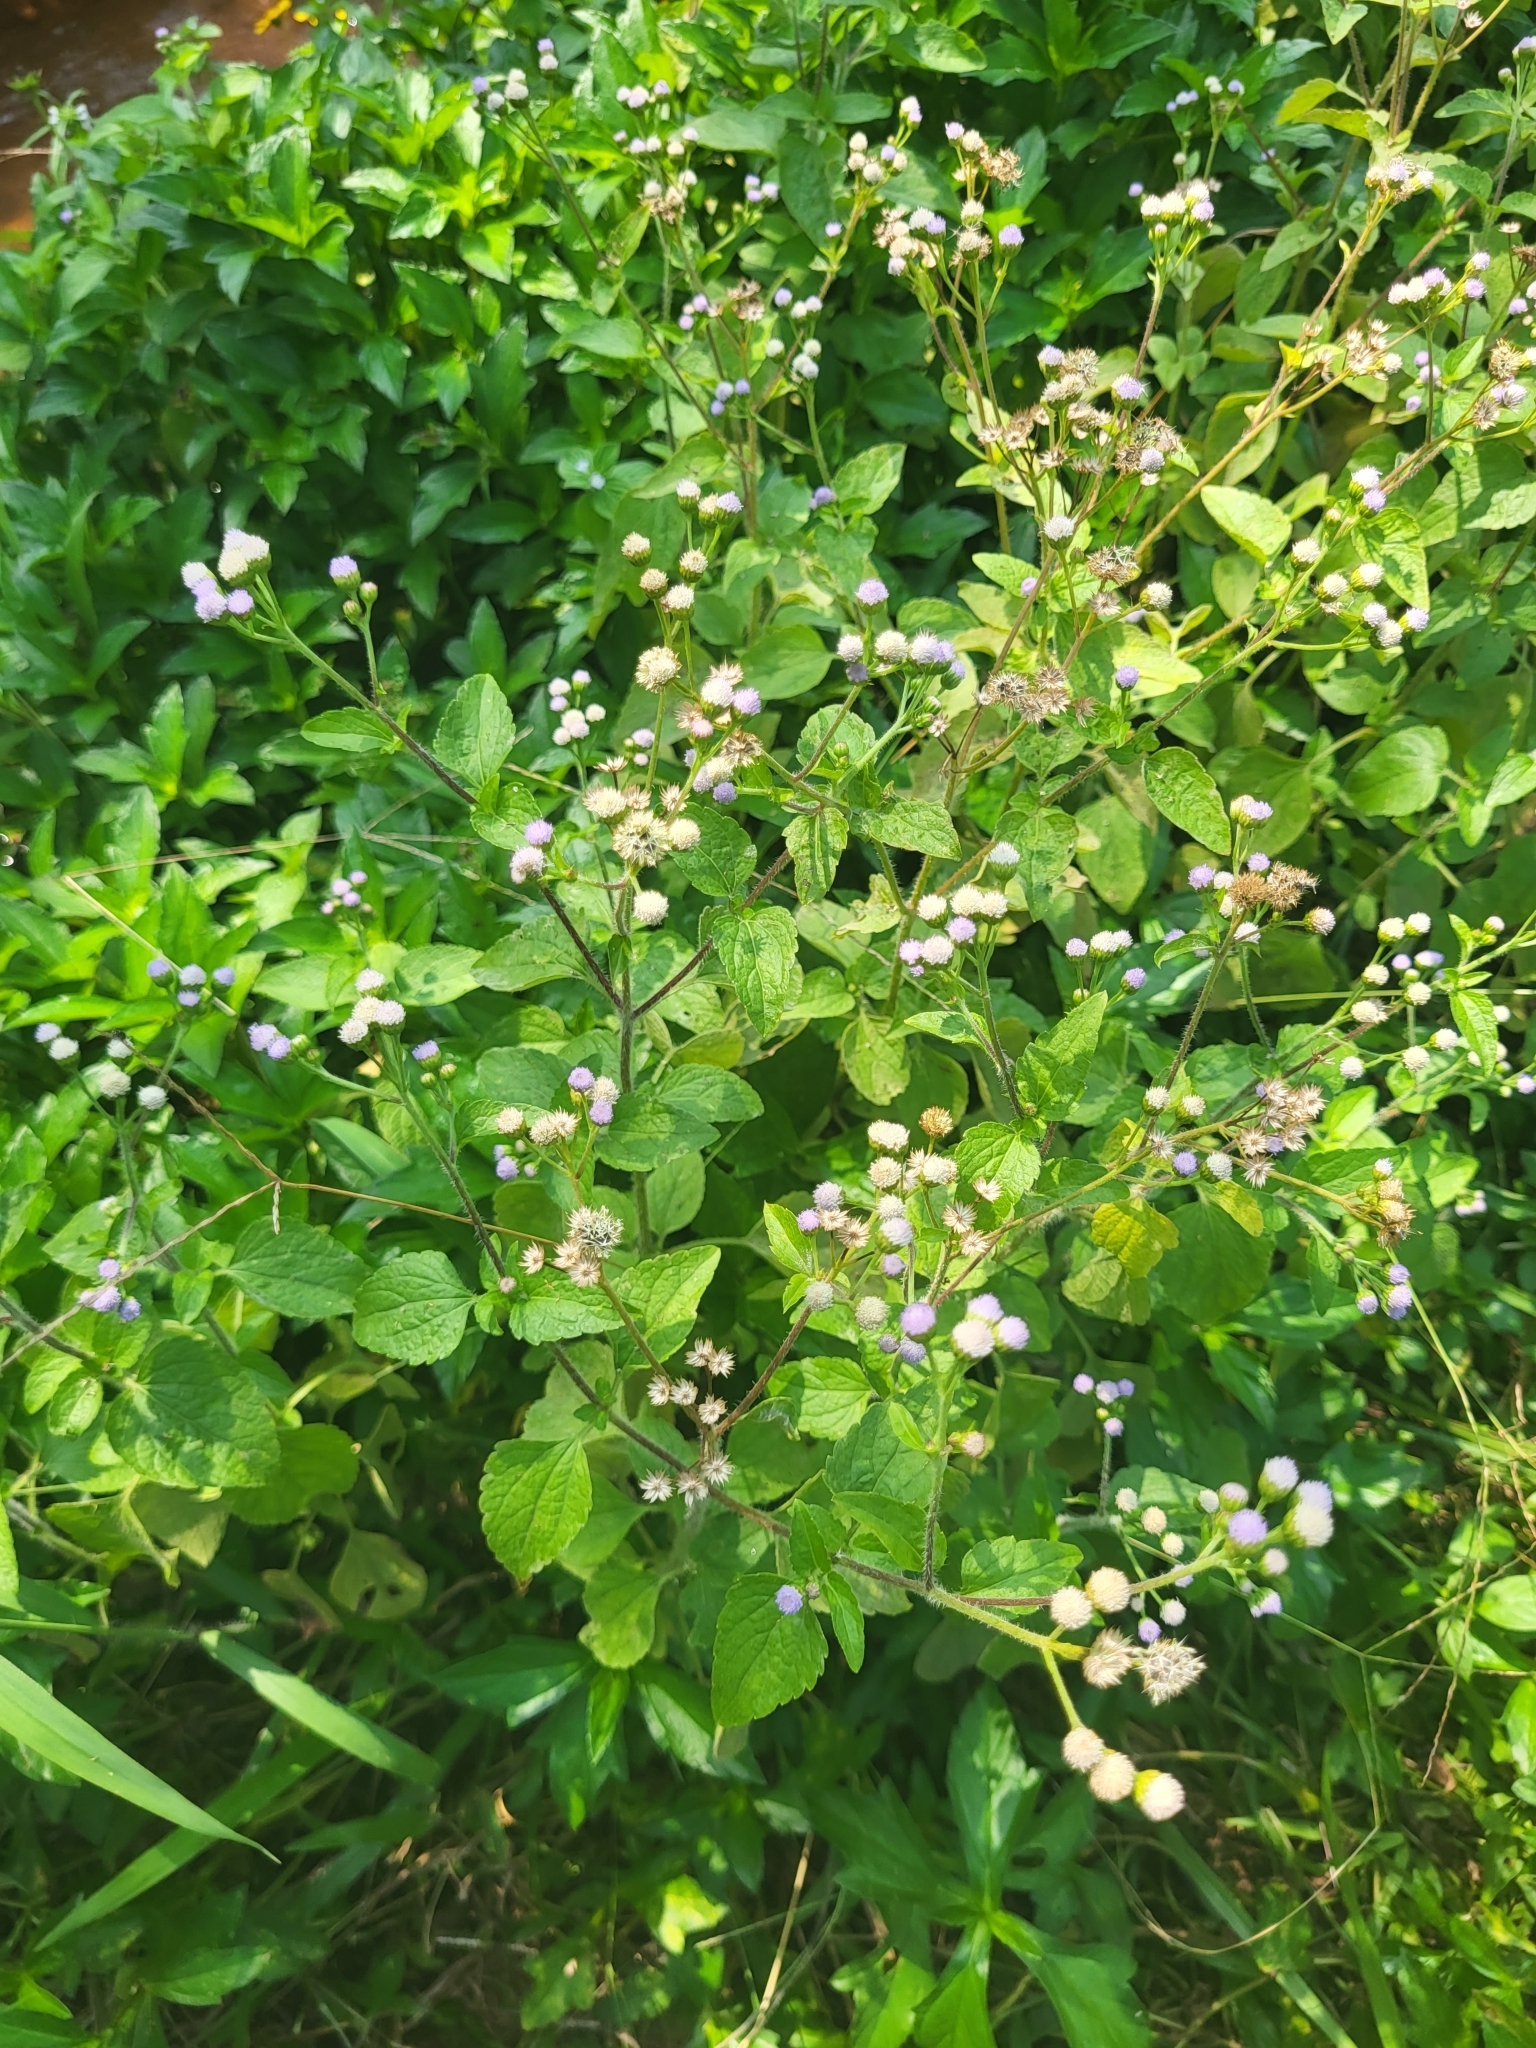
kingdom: Plantae
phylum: Tracheophyta
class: Magnoliopsida
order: Asterales
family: Asteraceae
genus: Ageratum
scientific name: Ageratum conyzoides
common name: Tropical whiteweed
